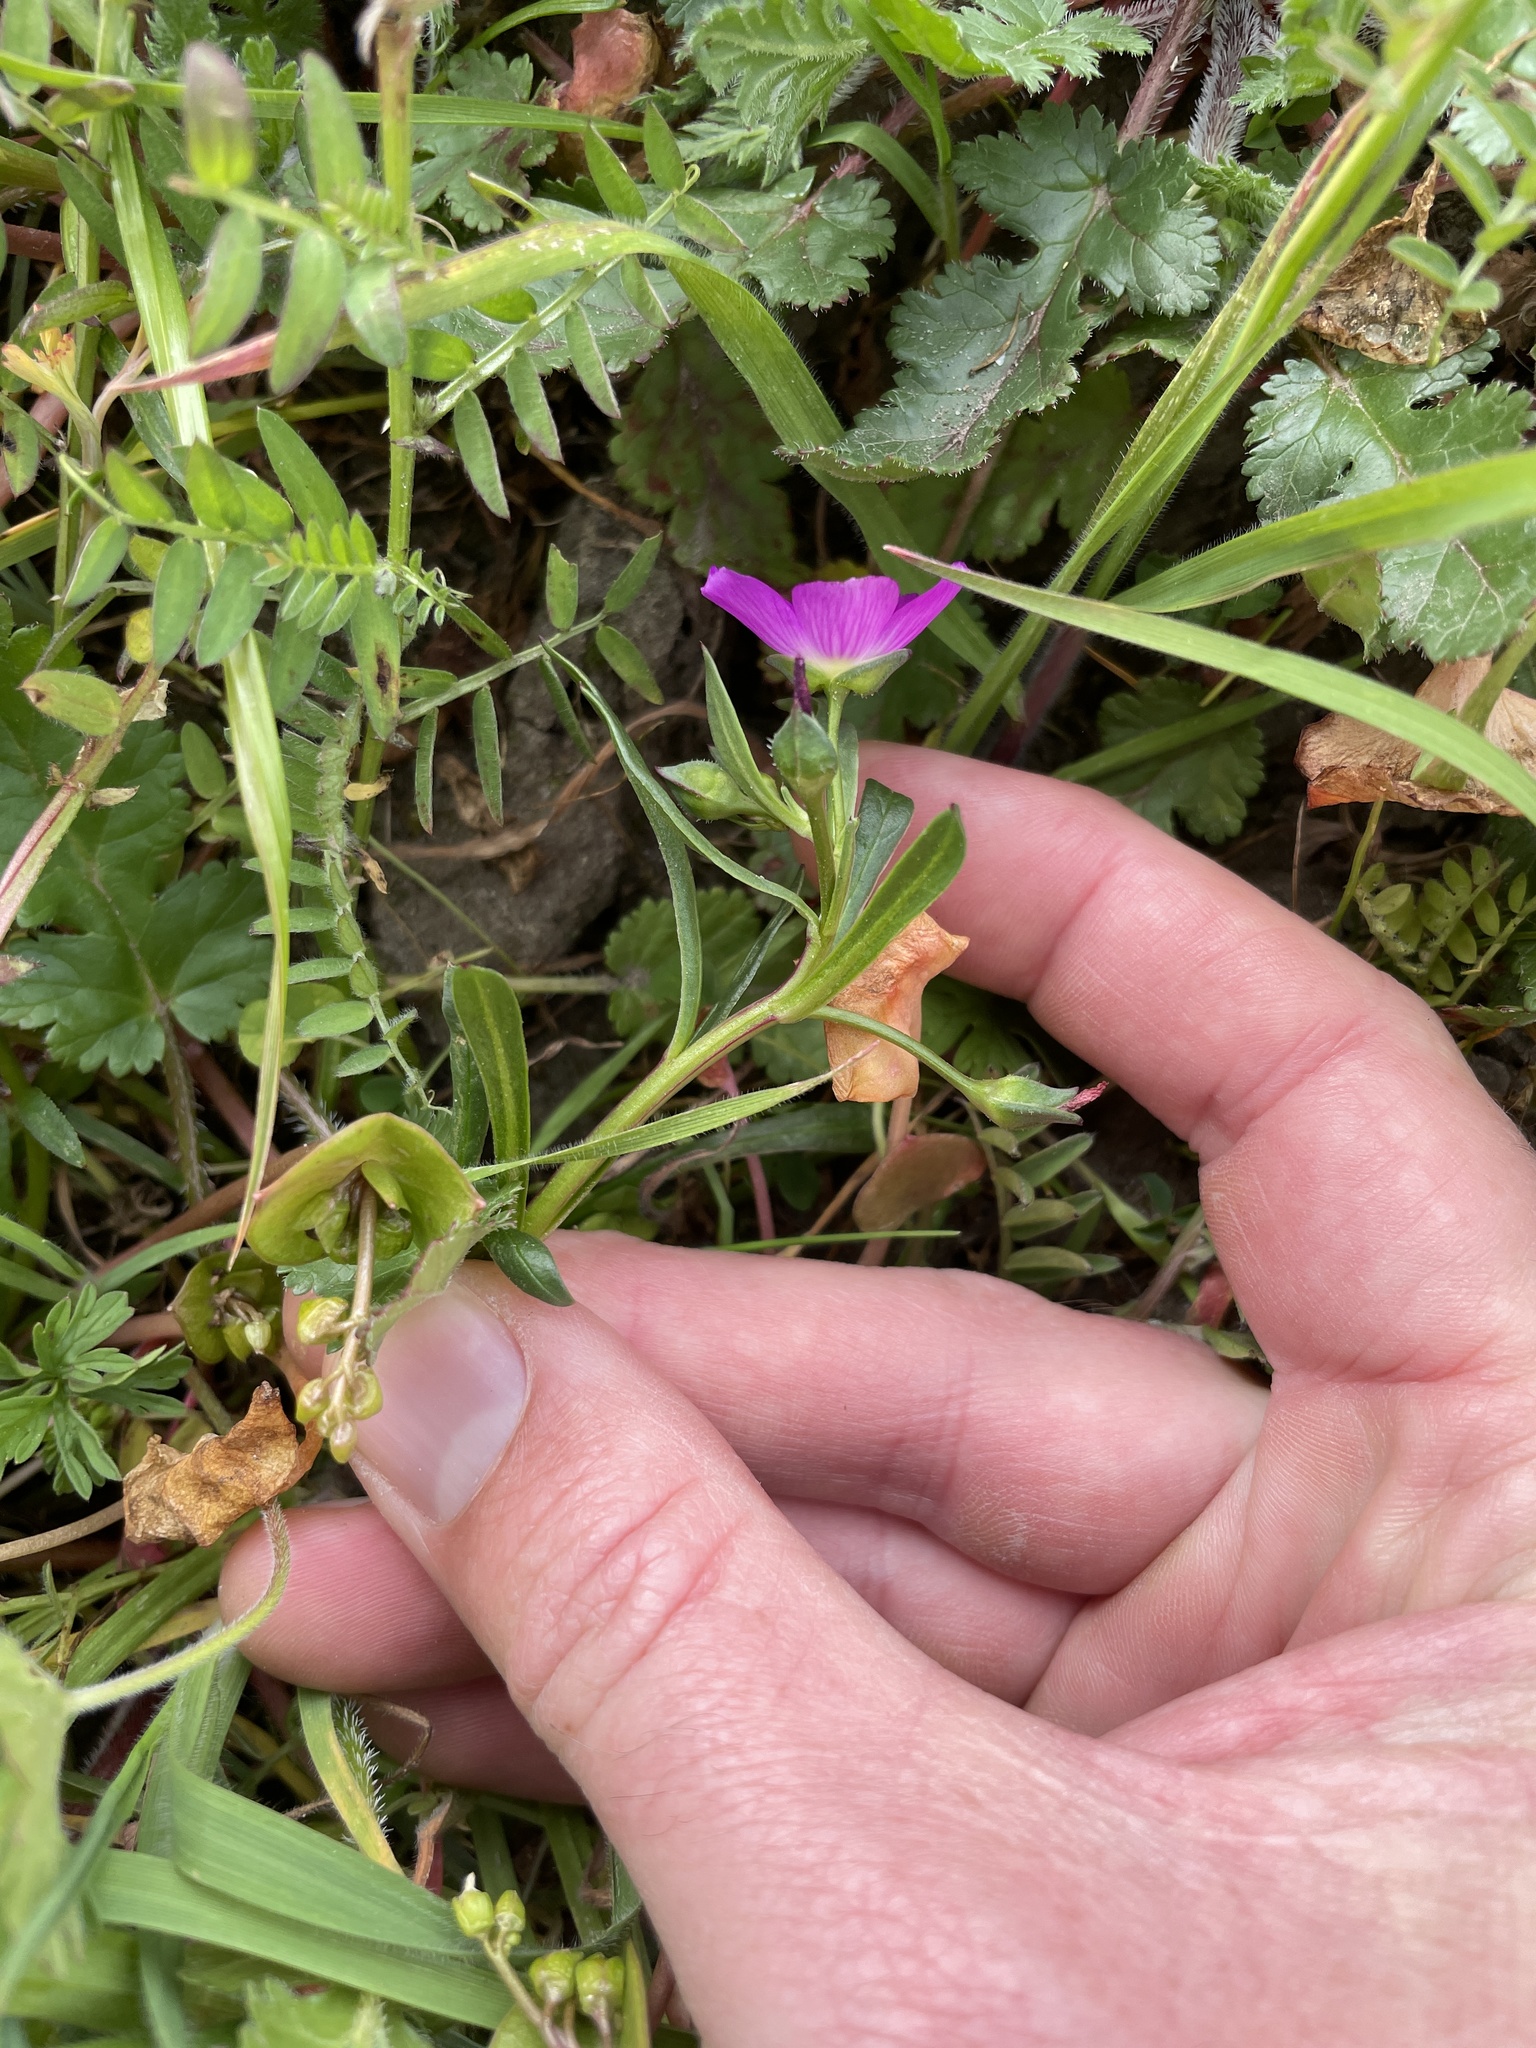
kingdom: Plantae
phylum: Tracheophyta
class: Magnoliopsida
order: Caryophyllales
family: Montiaceae
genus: Calandrinia
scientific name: Calandrinia menziesii
